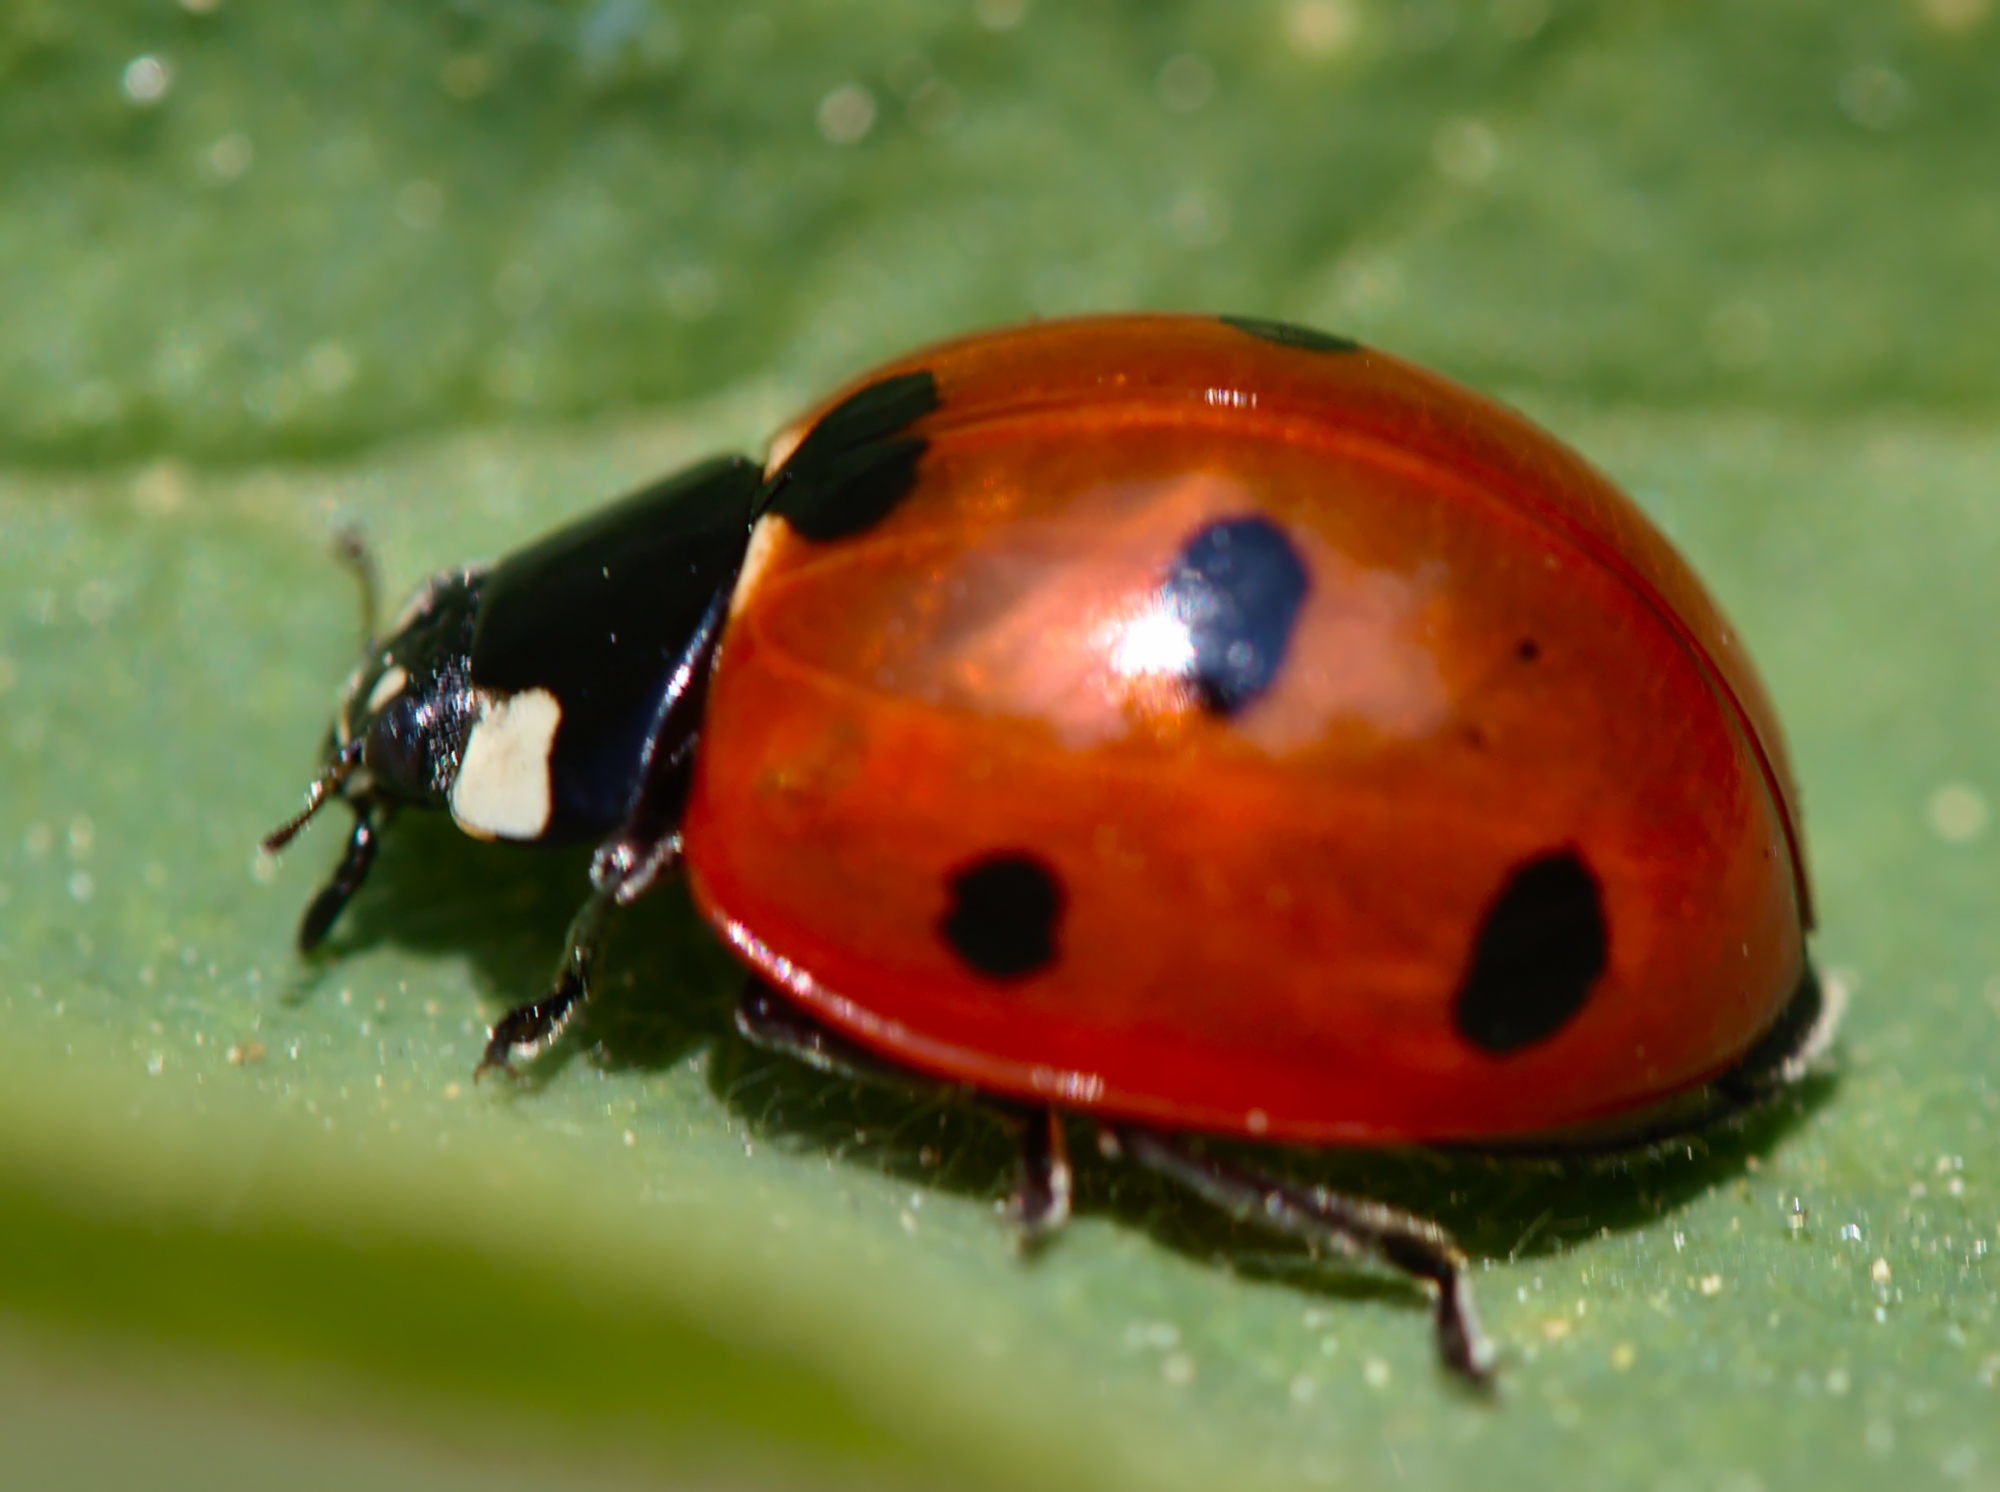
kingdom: Animalia
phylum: Arthropoda
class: Insecta
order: Coleoptera
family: Coccinellidae
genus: Coccinella
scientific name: Coccinella septempunctata
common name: Sevenspotted lady beetle
